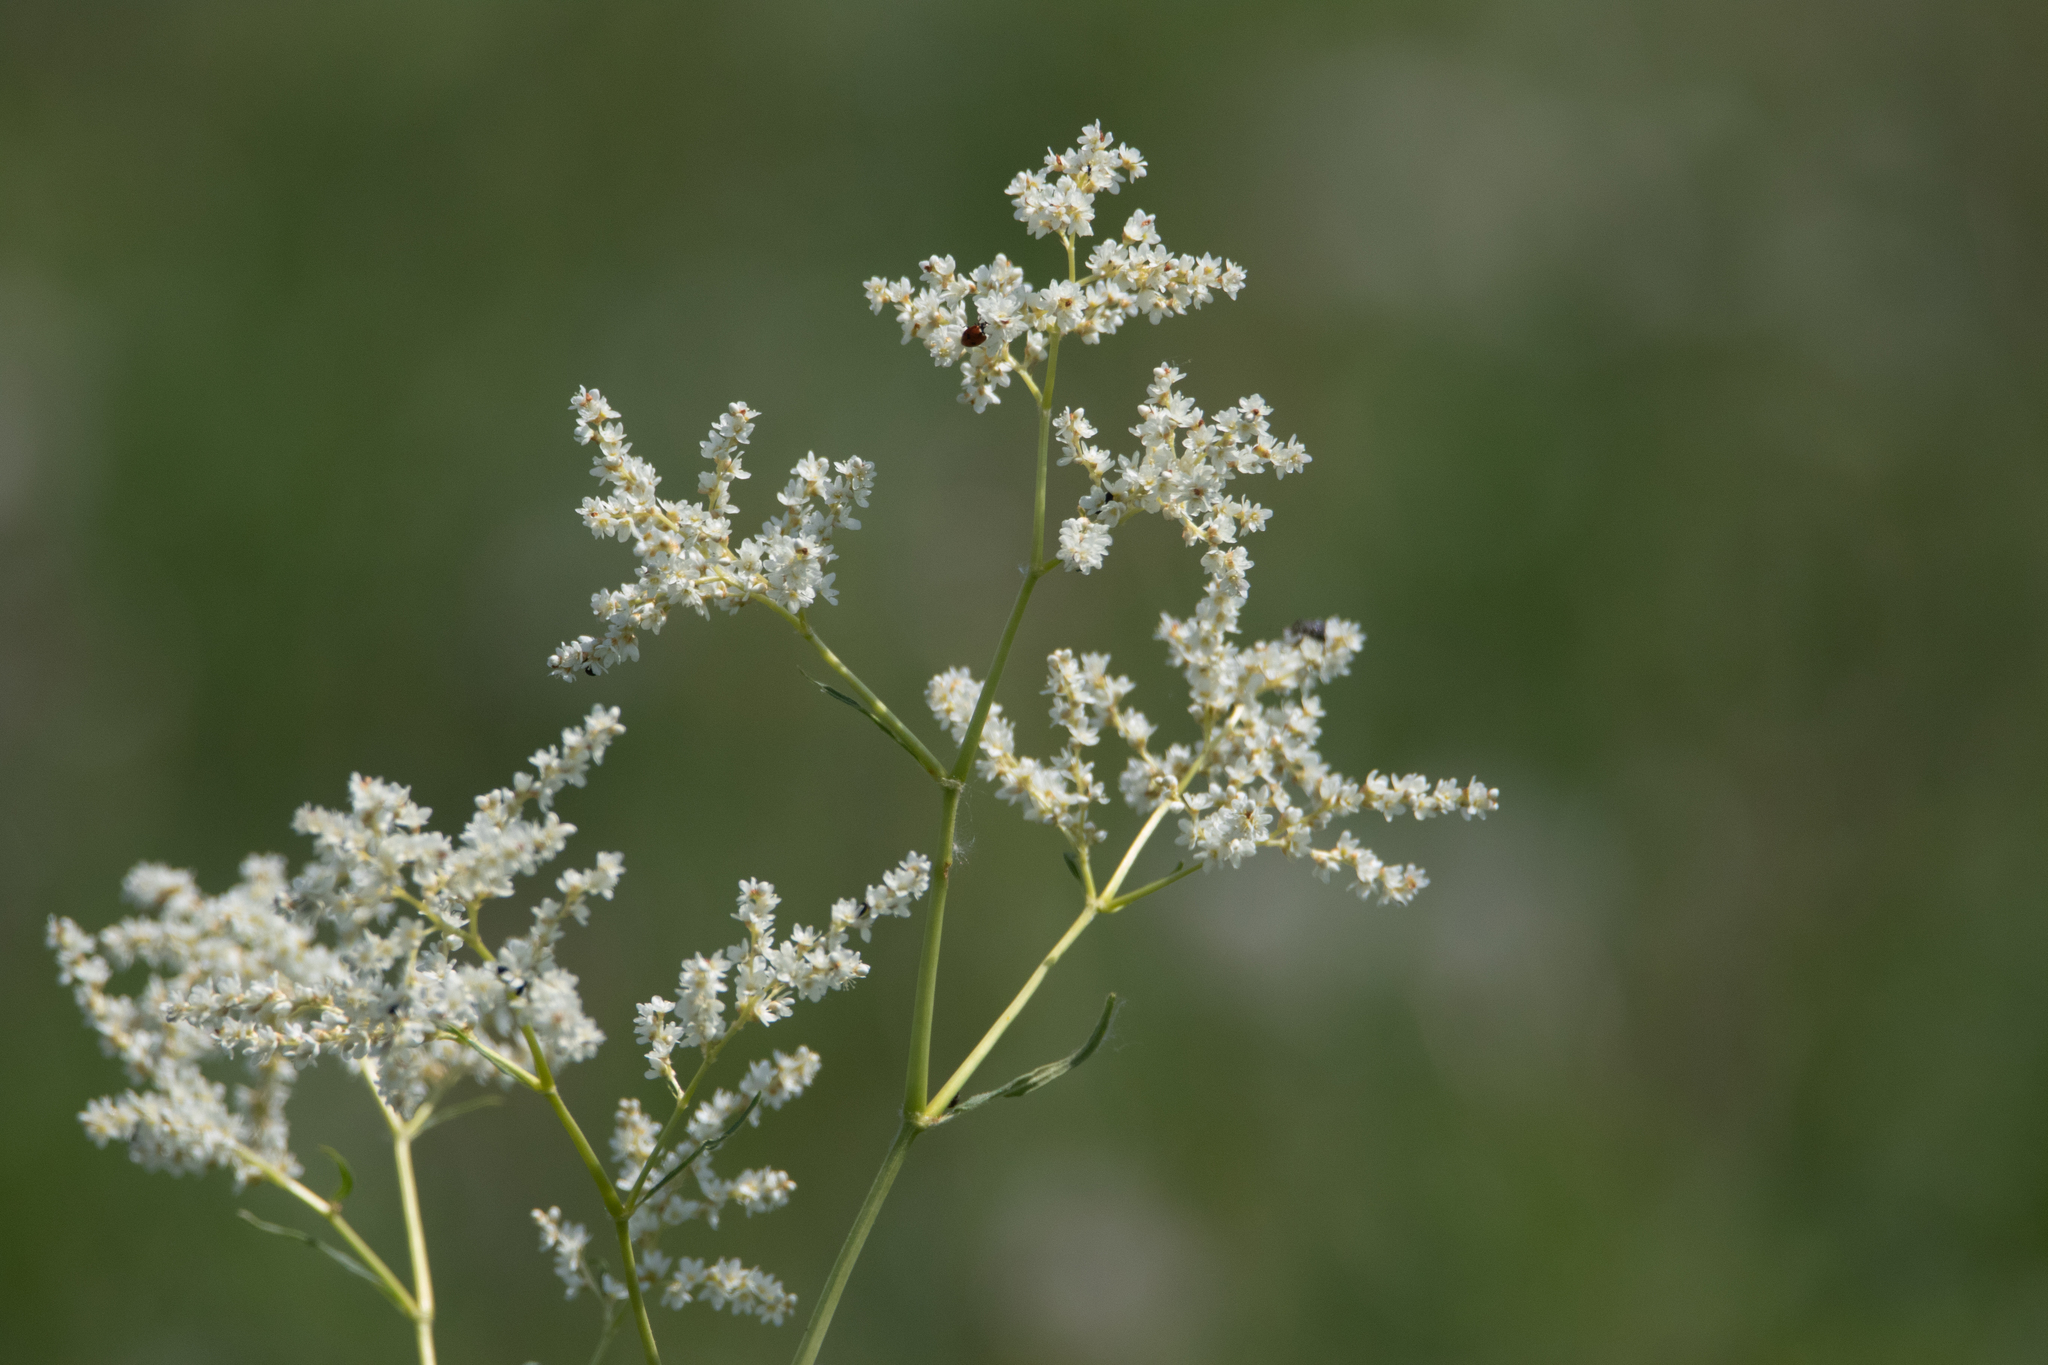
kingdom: Plantae
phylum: Tracheophyta
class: Magnoliopsida
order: Caryophyllales
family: Polygonaceae
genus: Koenigia
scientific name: Koenigia alpina
